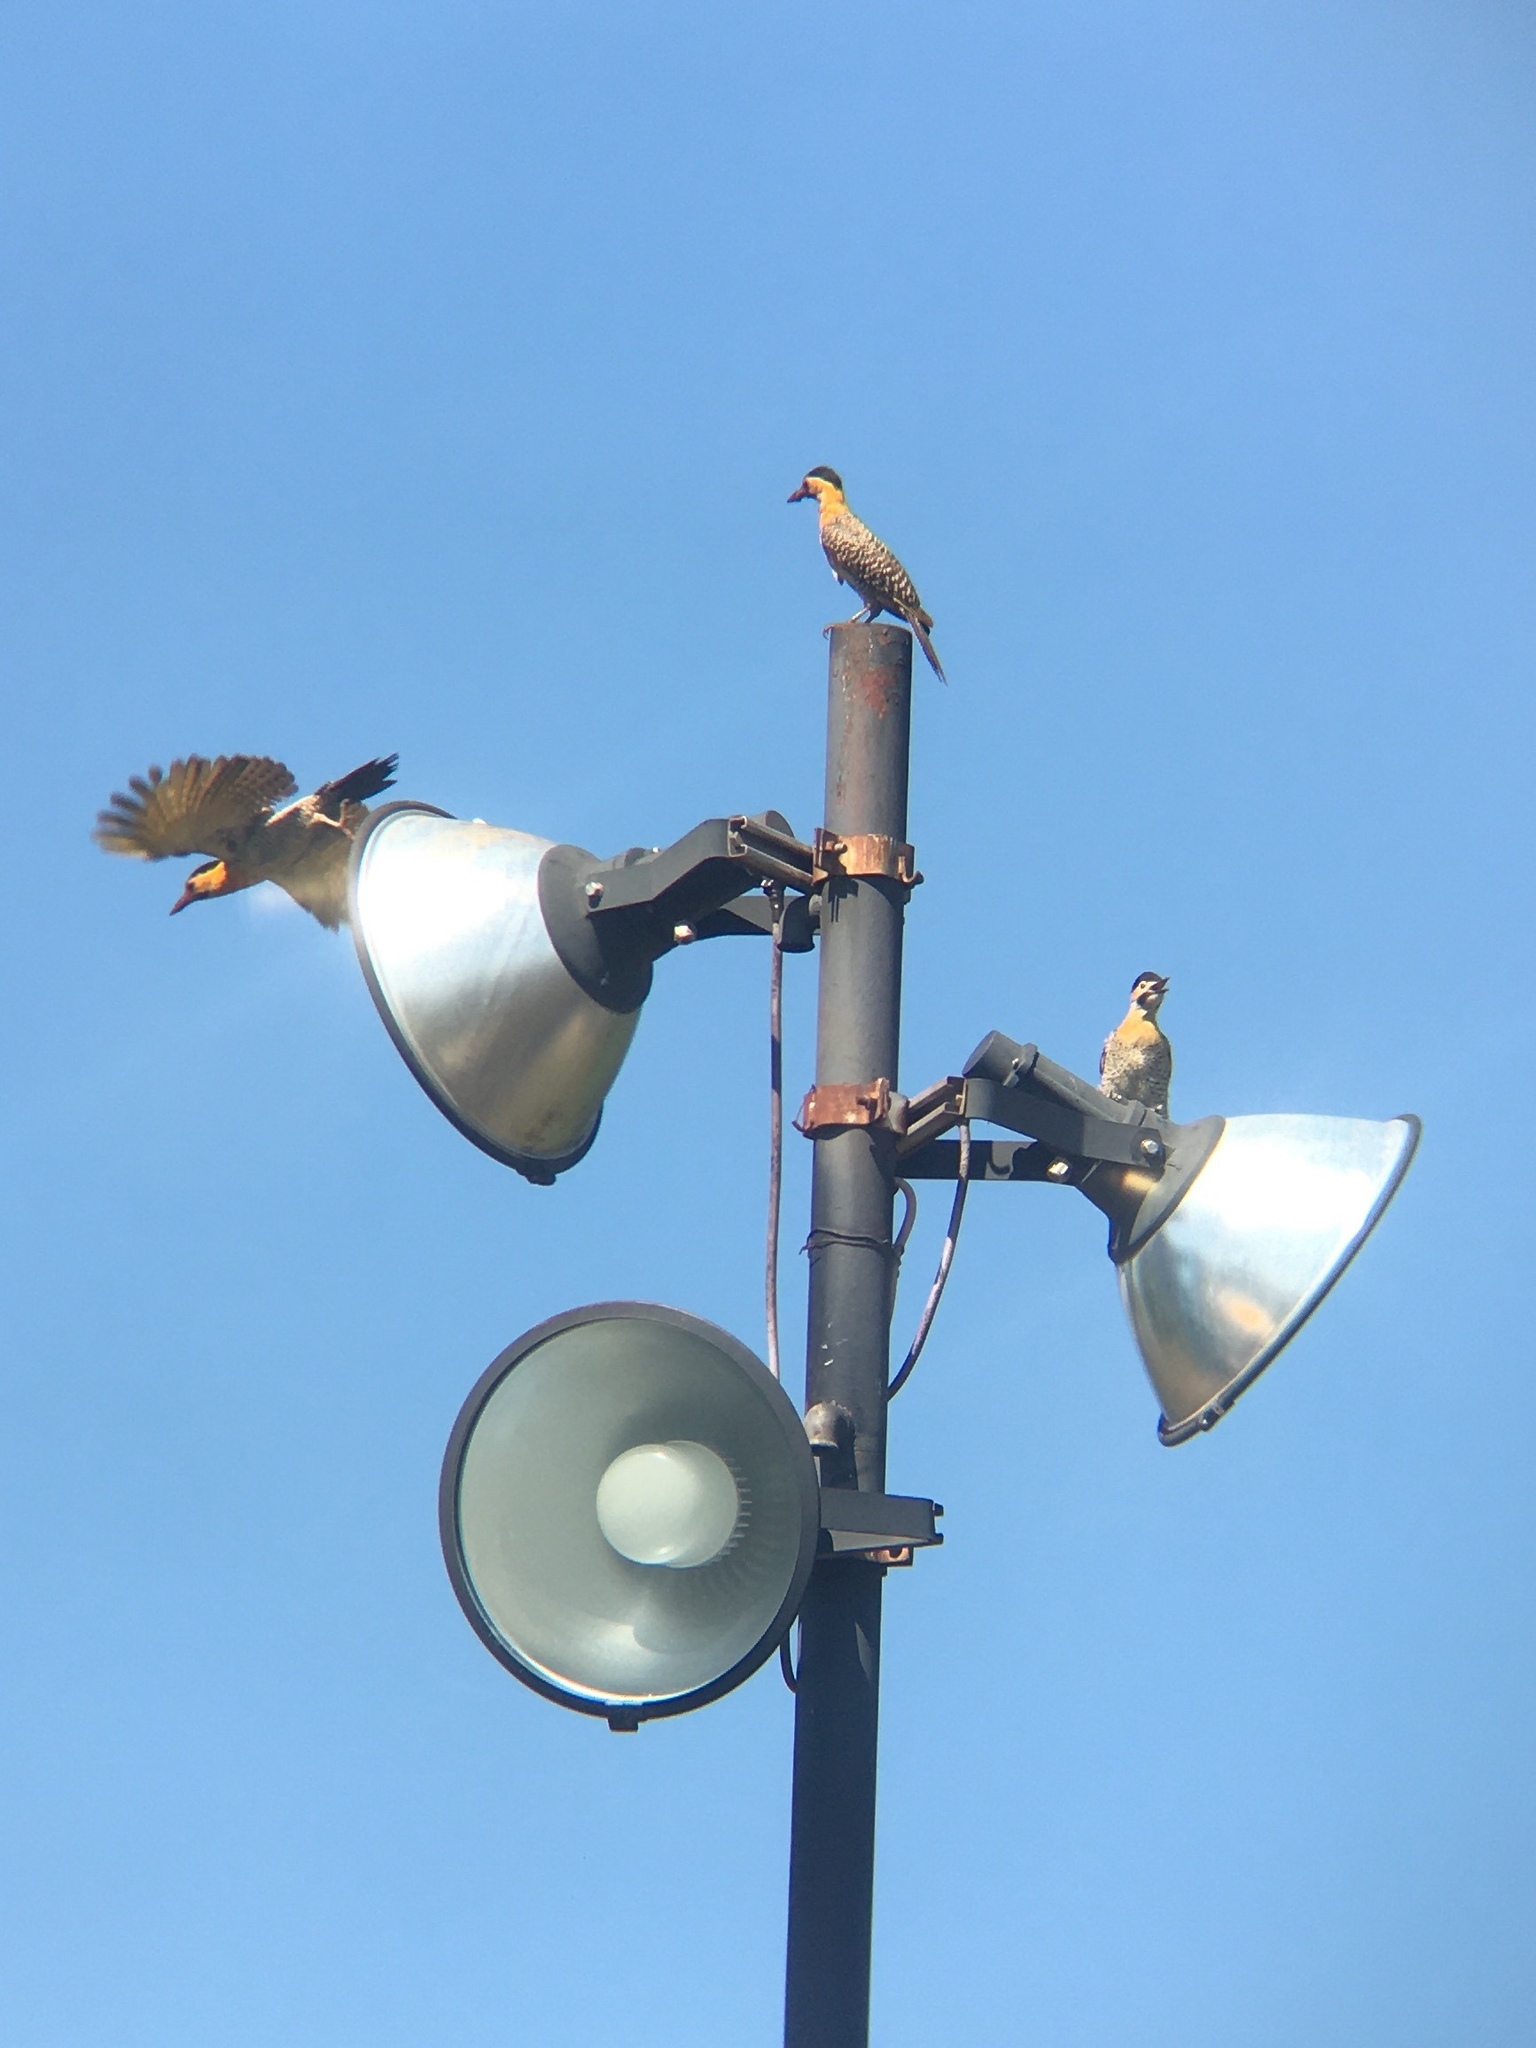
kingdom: Animalia
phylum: Chordata
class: Aves
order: Piciformes
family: Picidae
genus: Colaptes
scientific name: Colaptes campestris
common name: Campo flicker
